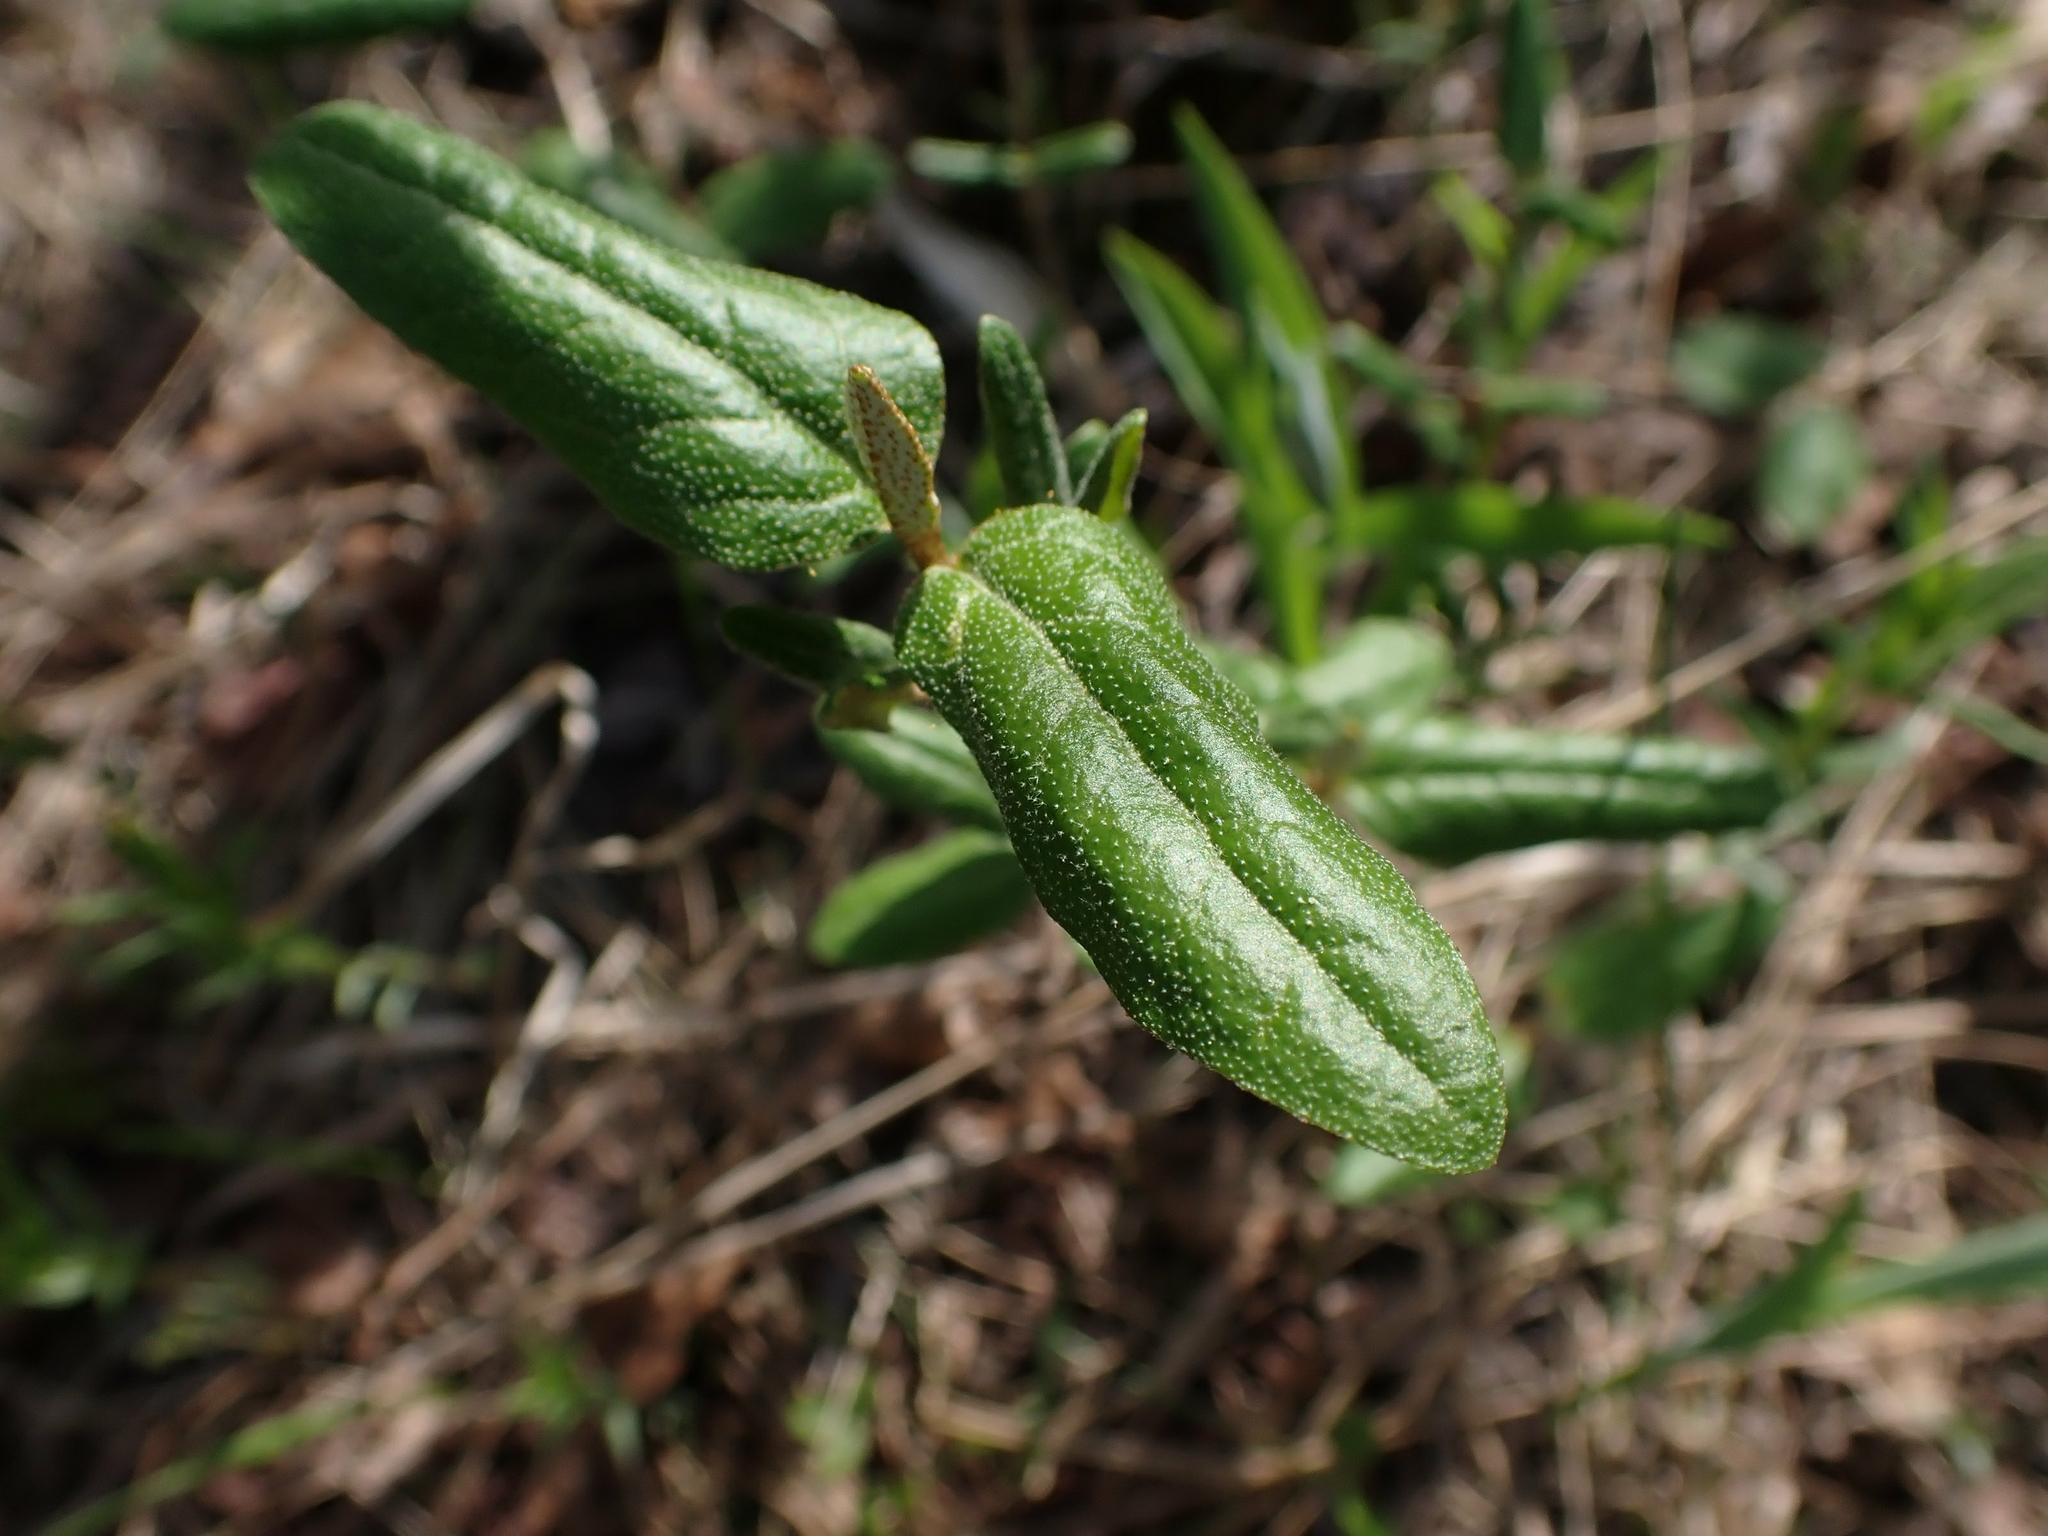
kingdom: Plantae
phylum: Tracheophyta
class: Magnoliopsida
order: Rosales
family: Elaeagnaceae
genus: Shepherdia
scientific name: Shepherdia canadensis
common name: Soapberry
